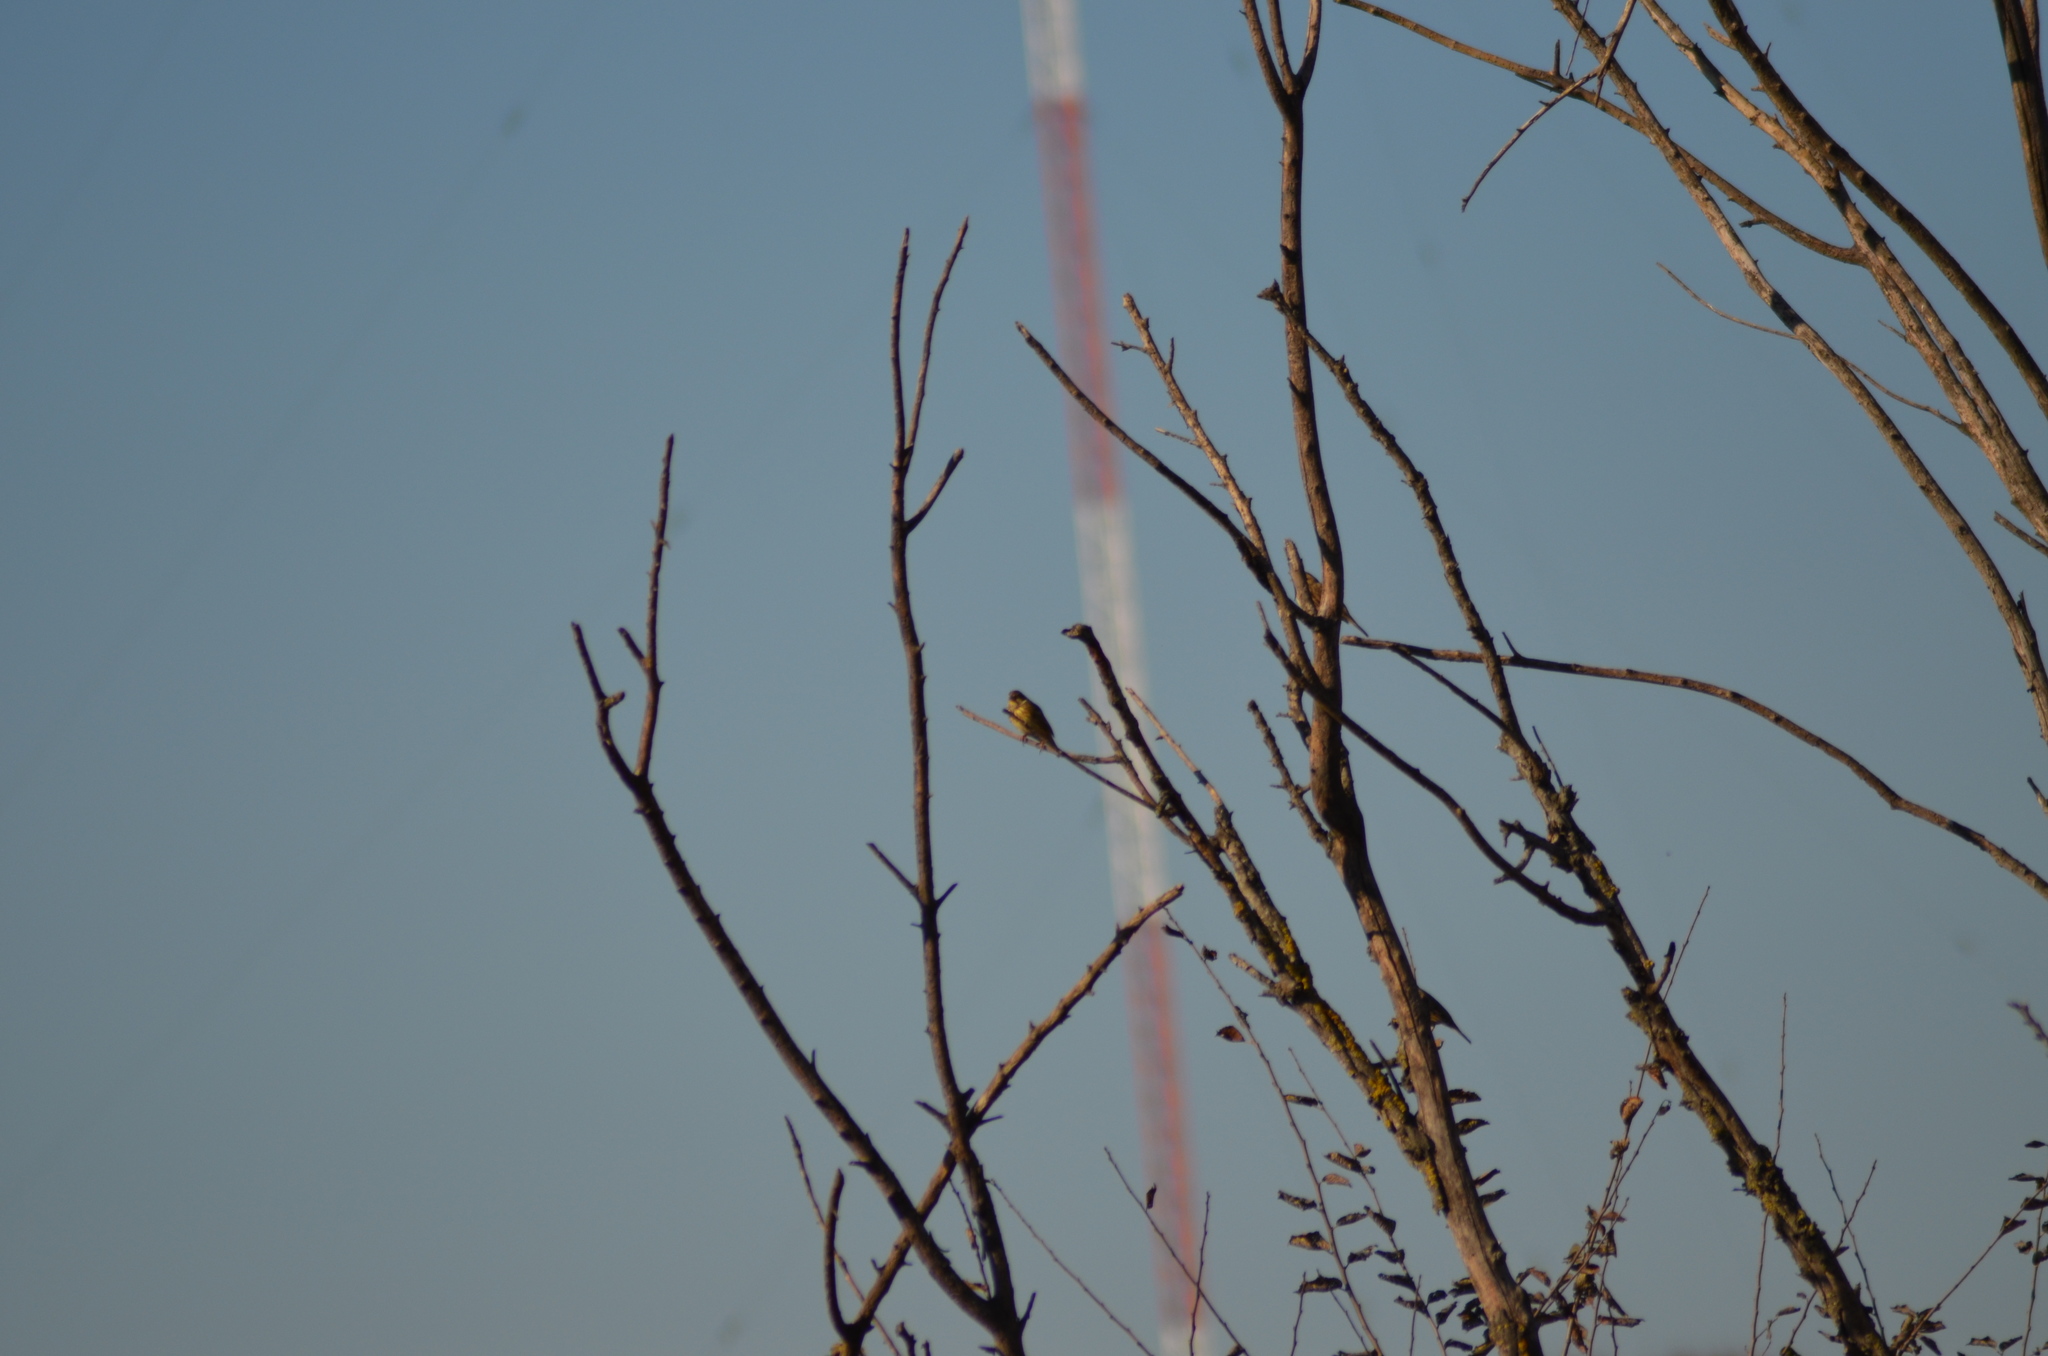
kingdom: Animalia
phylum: Chordata
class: Aves
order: Passeriformes
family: Emberizidae
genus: Emberiza
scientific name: Emberiza calandra
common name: Corn bunting
